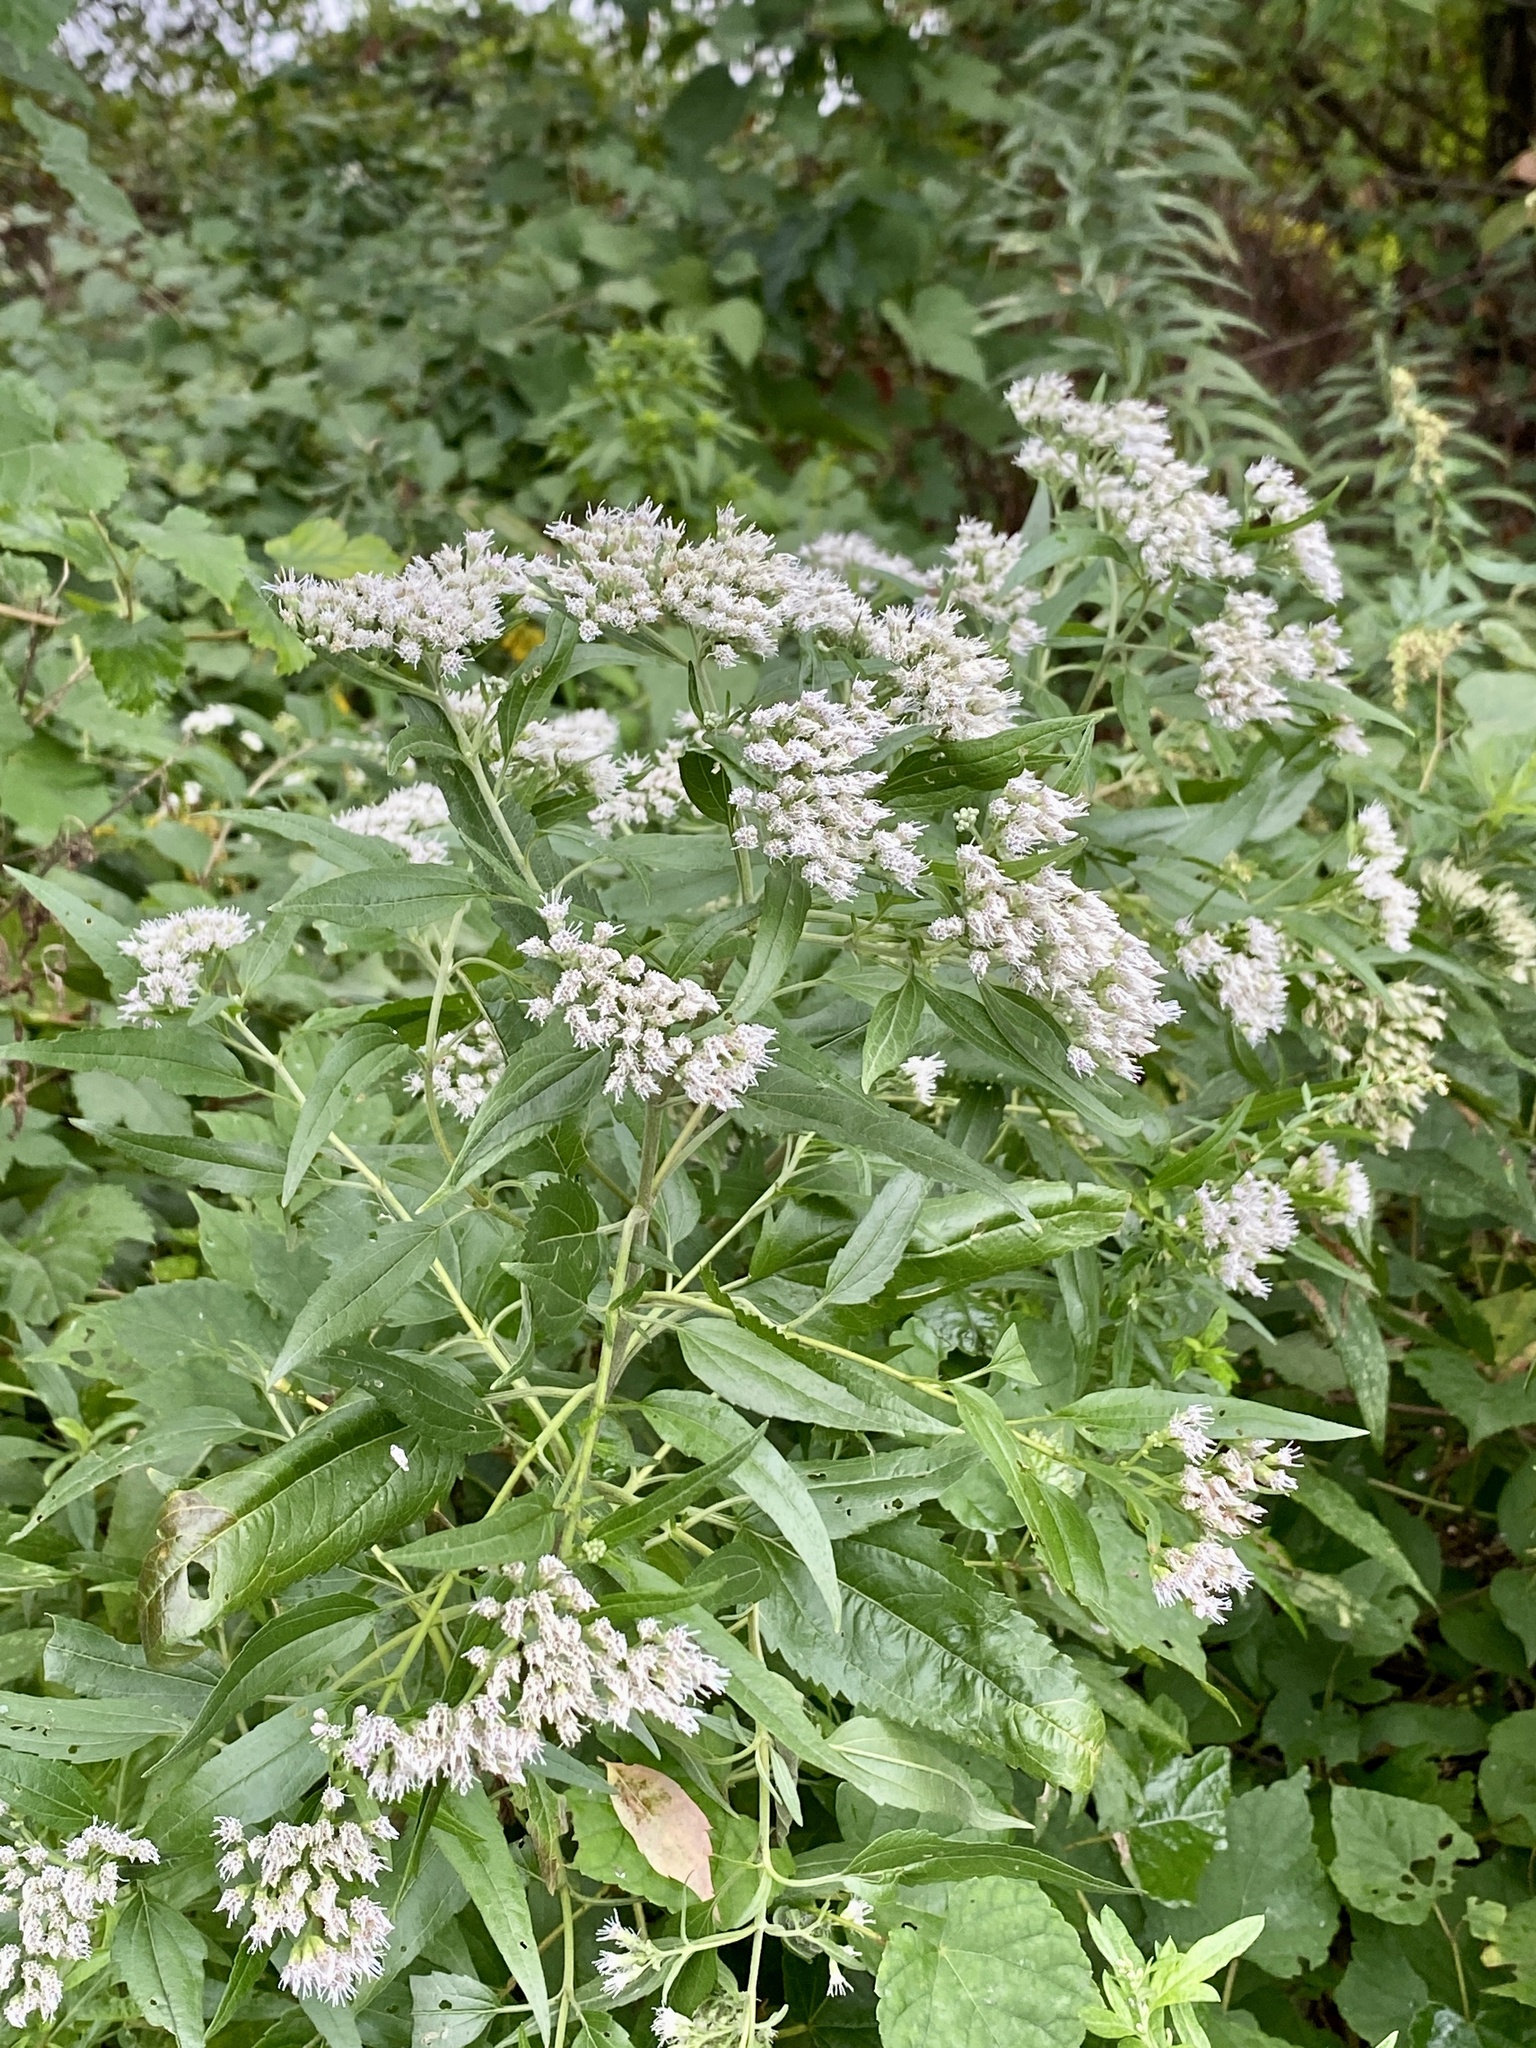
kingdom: Plantae
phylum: Tracheophyta
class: Magnoliopsida
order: Asterales
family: Asteraceae
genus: Eupatorium
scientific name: Eupatorium serotinum
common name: Late boneset
